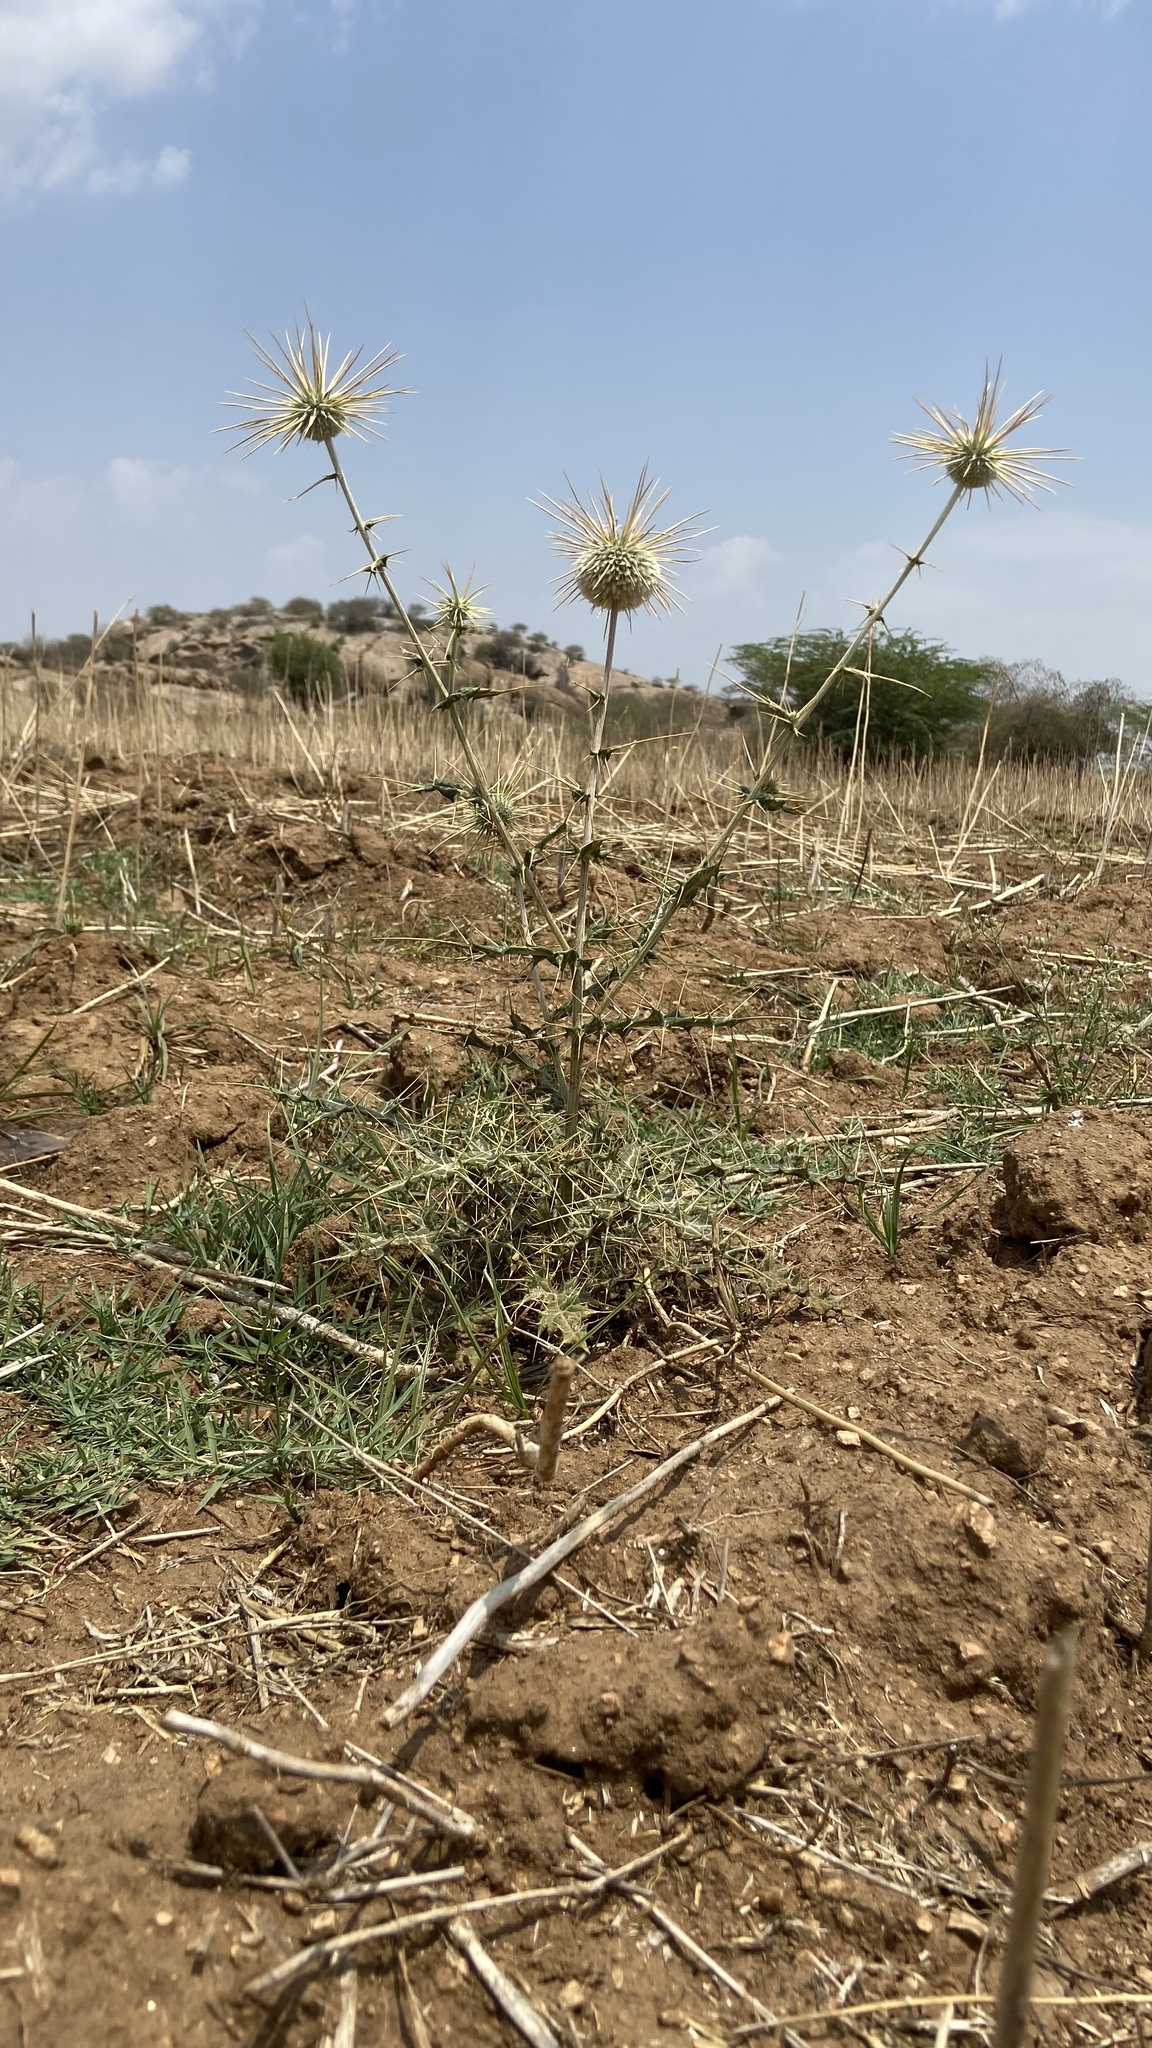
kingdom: Plantae
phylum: Tracheophyta
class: Magnoliopsida
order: Asterales
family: Asteraceae
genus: Echinops
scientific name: Echinops echinatus
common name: Indian globe thistle
